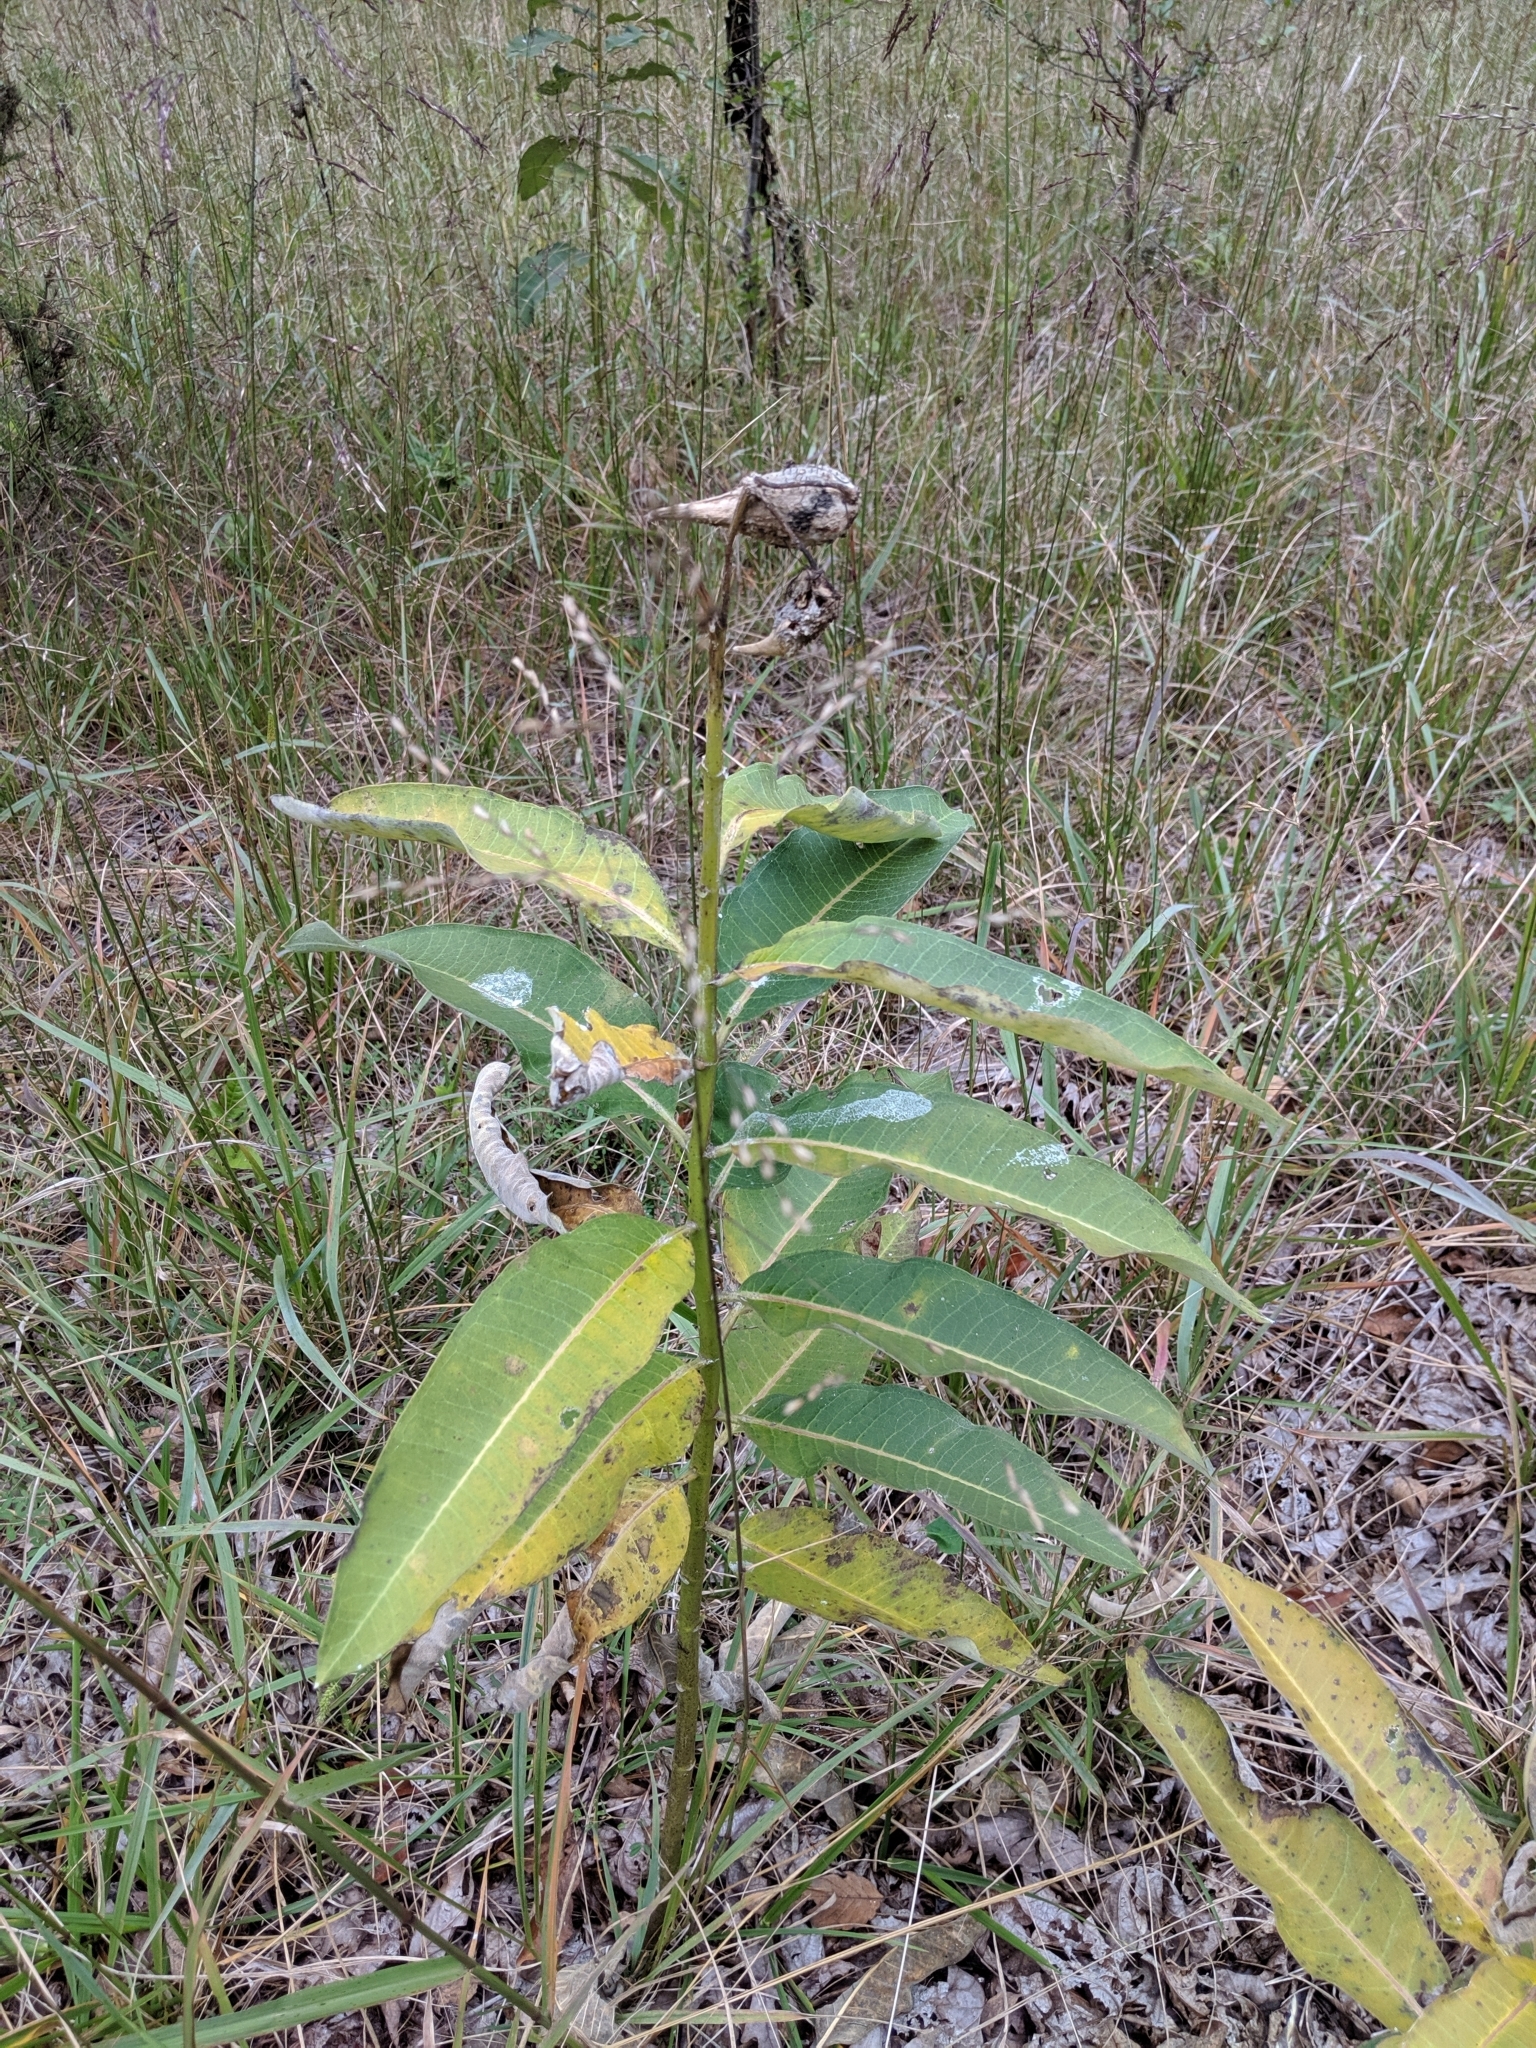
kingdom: Plantae
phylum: Tracheophyta
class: Magnoliopsida
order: Gentianales
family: Apocynaceae
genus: Asclepias
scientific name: Asclepias syriaca
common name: Common milkweed
